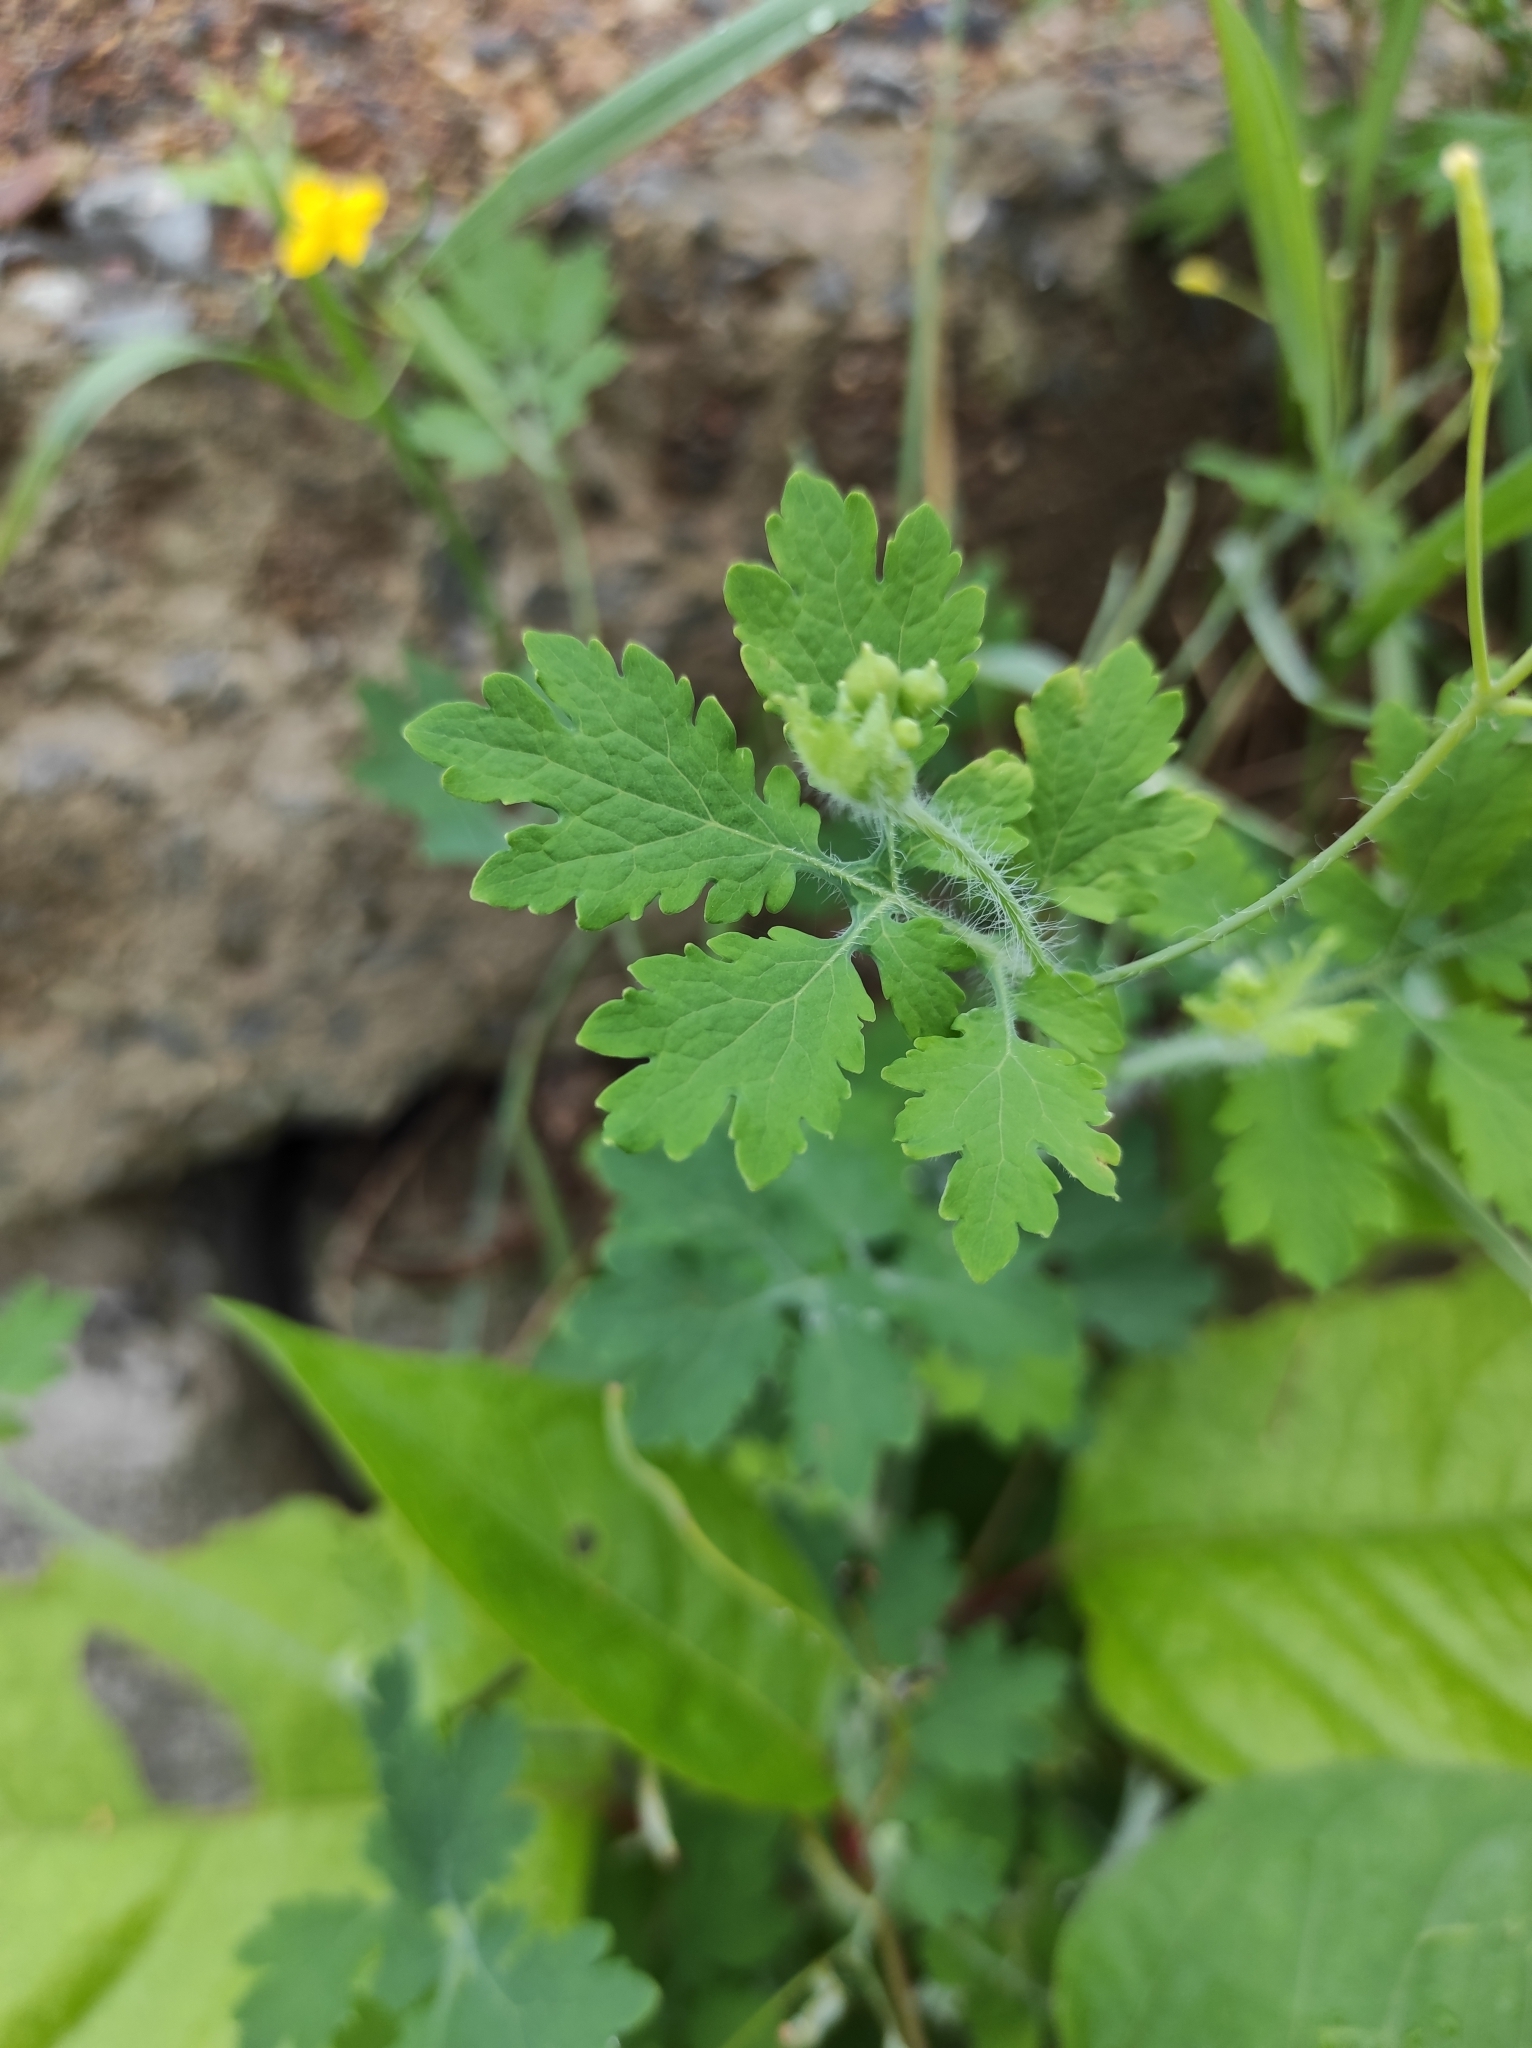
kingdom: Plantae
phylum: Tracheophyta
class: Magnoliopsida
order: Ranunculales
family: Papaveraceae
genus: Chelidonium
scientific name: Chelidonium majus
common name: Greater celandine
